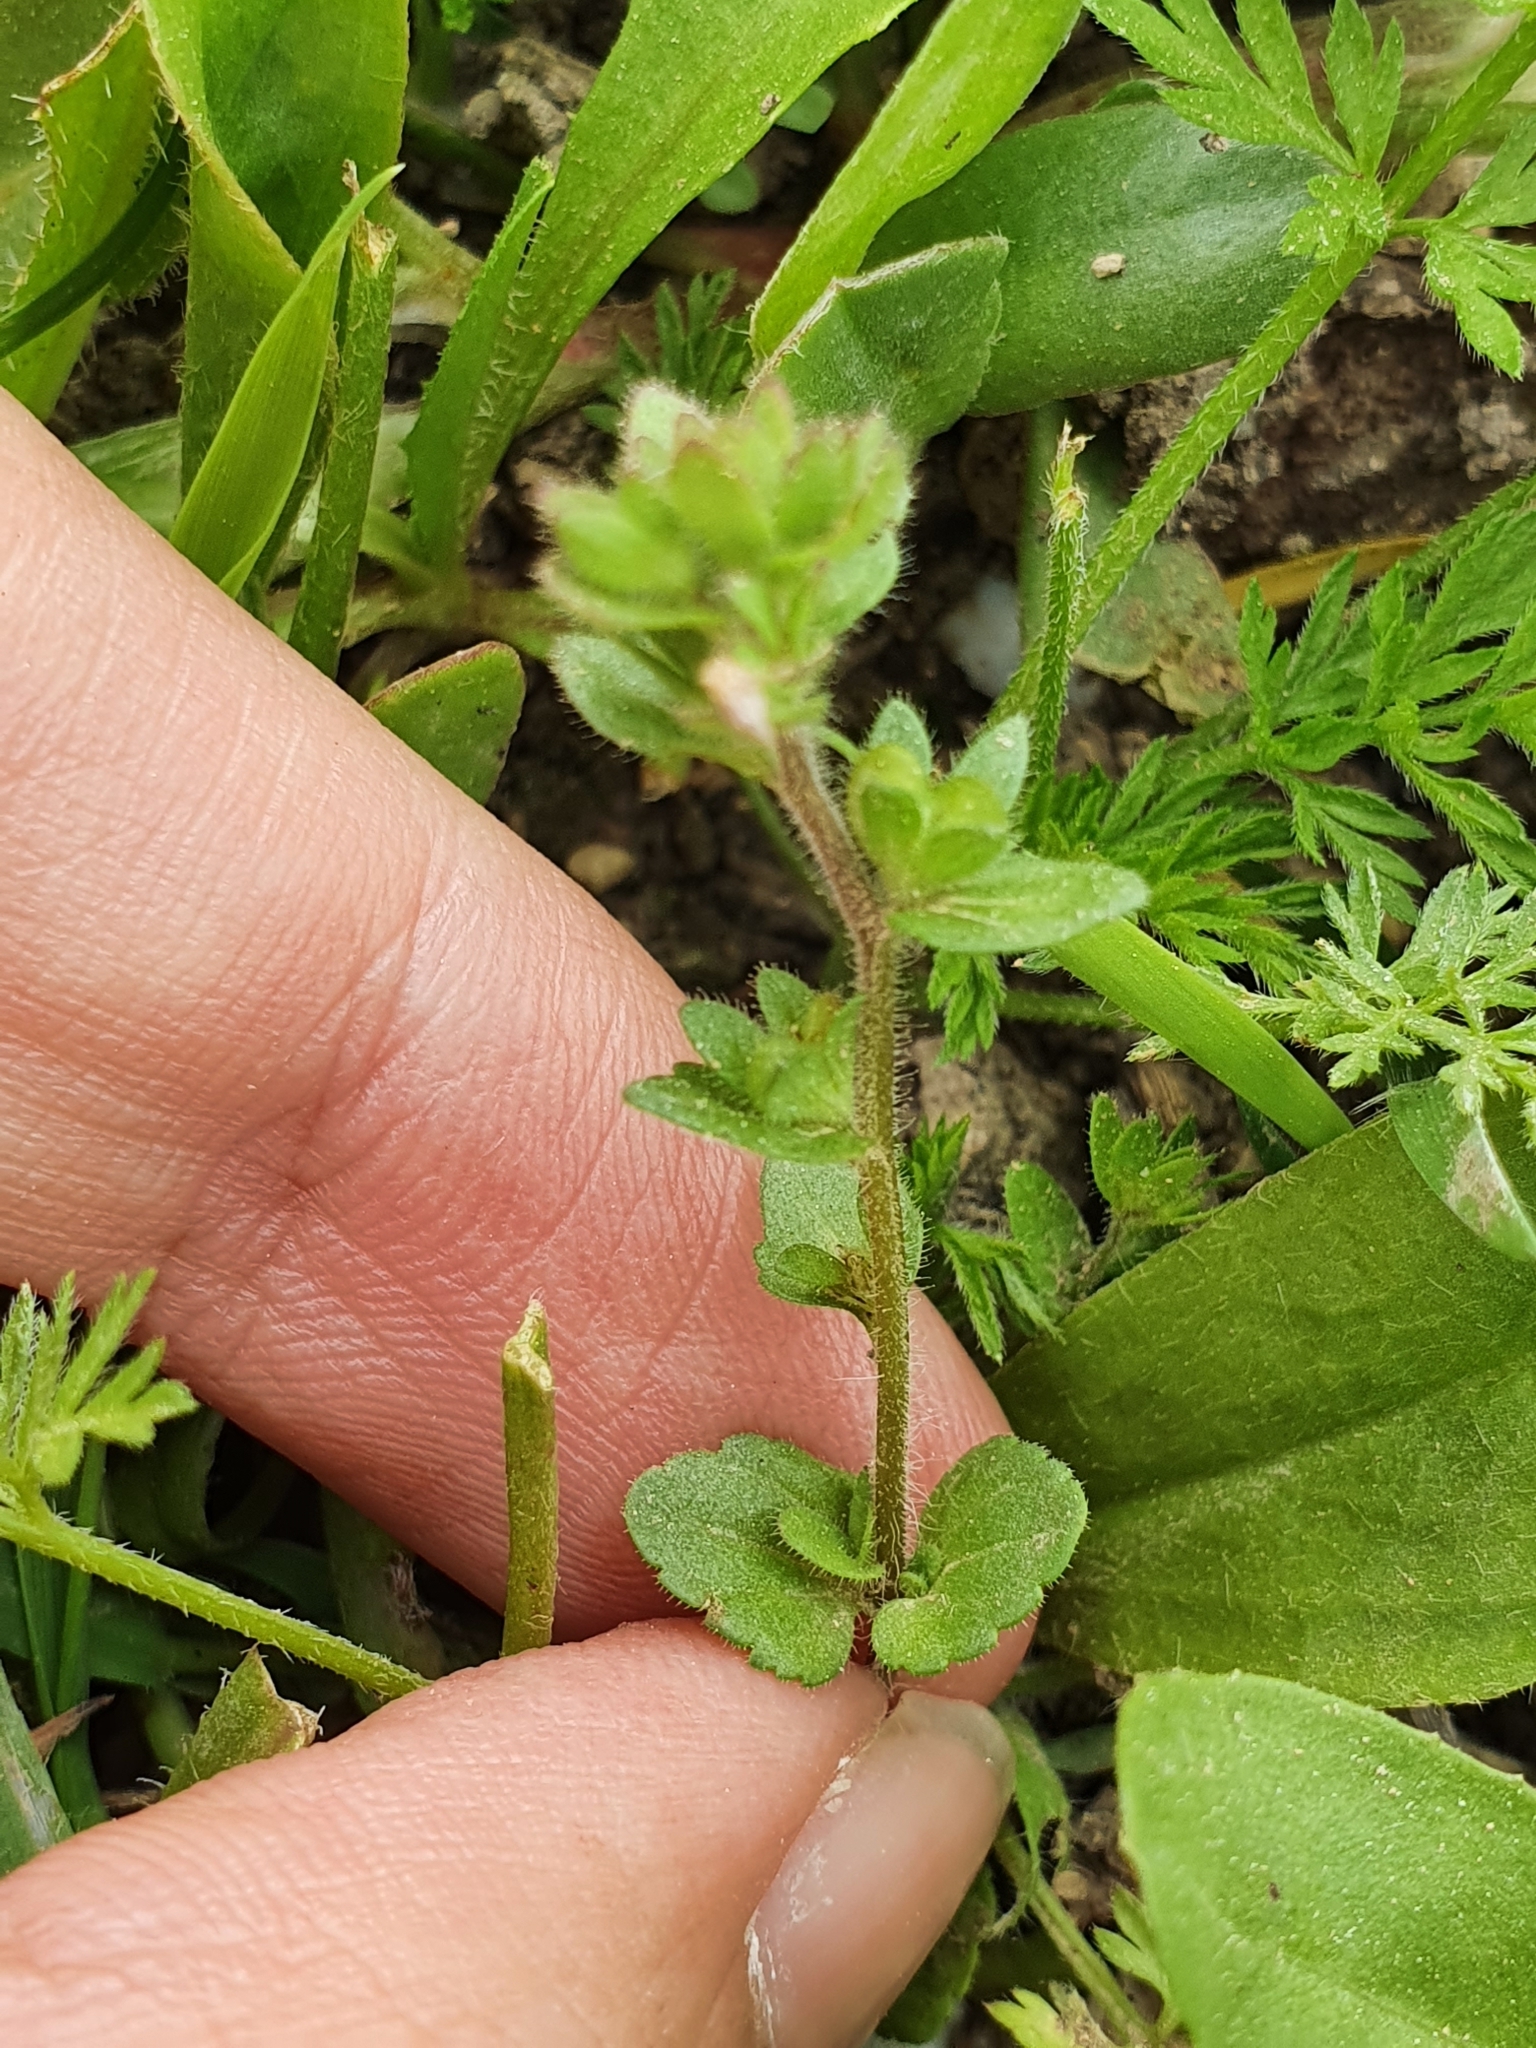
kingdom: Plantae
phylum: Tracheophyta
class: Magnoliopsida
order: Lamiales
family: Plantaginaceae
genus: Veronica
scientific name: Veronica arvensis
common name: Corn speedwell
